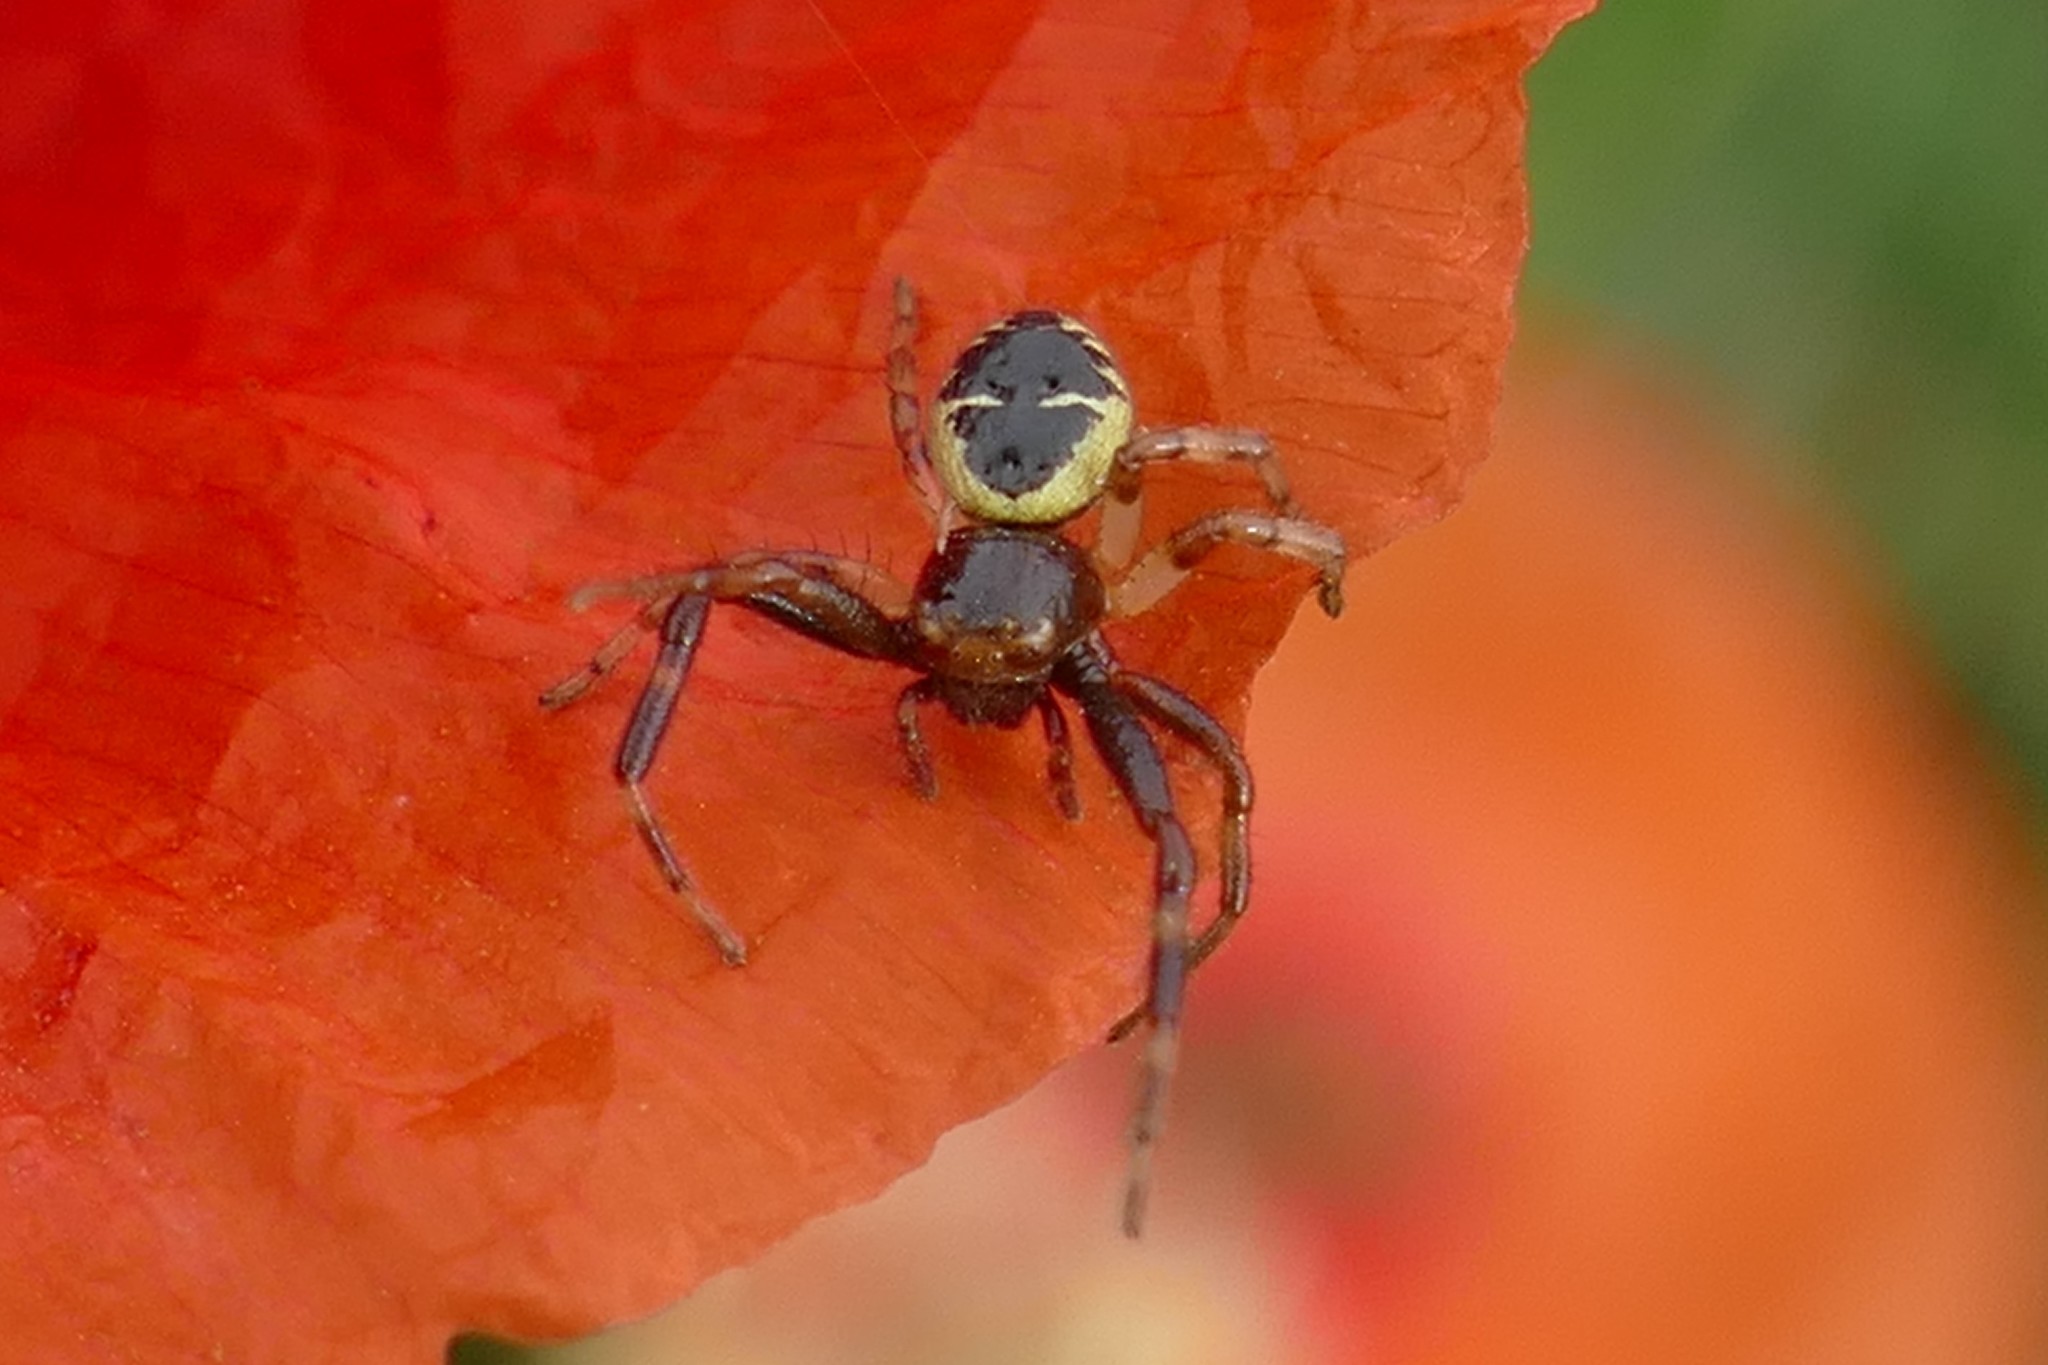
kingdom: Animalia
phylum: Arthropoda
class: Arachnida
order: Araneae
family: Thomisidae
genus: Synema
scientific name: Synema globosum
